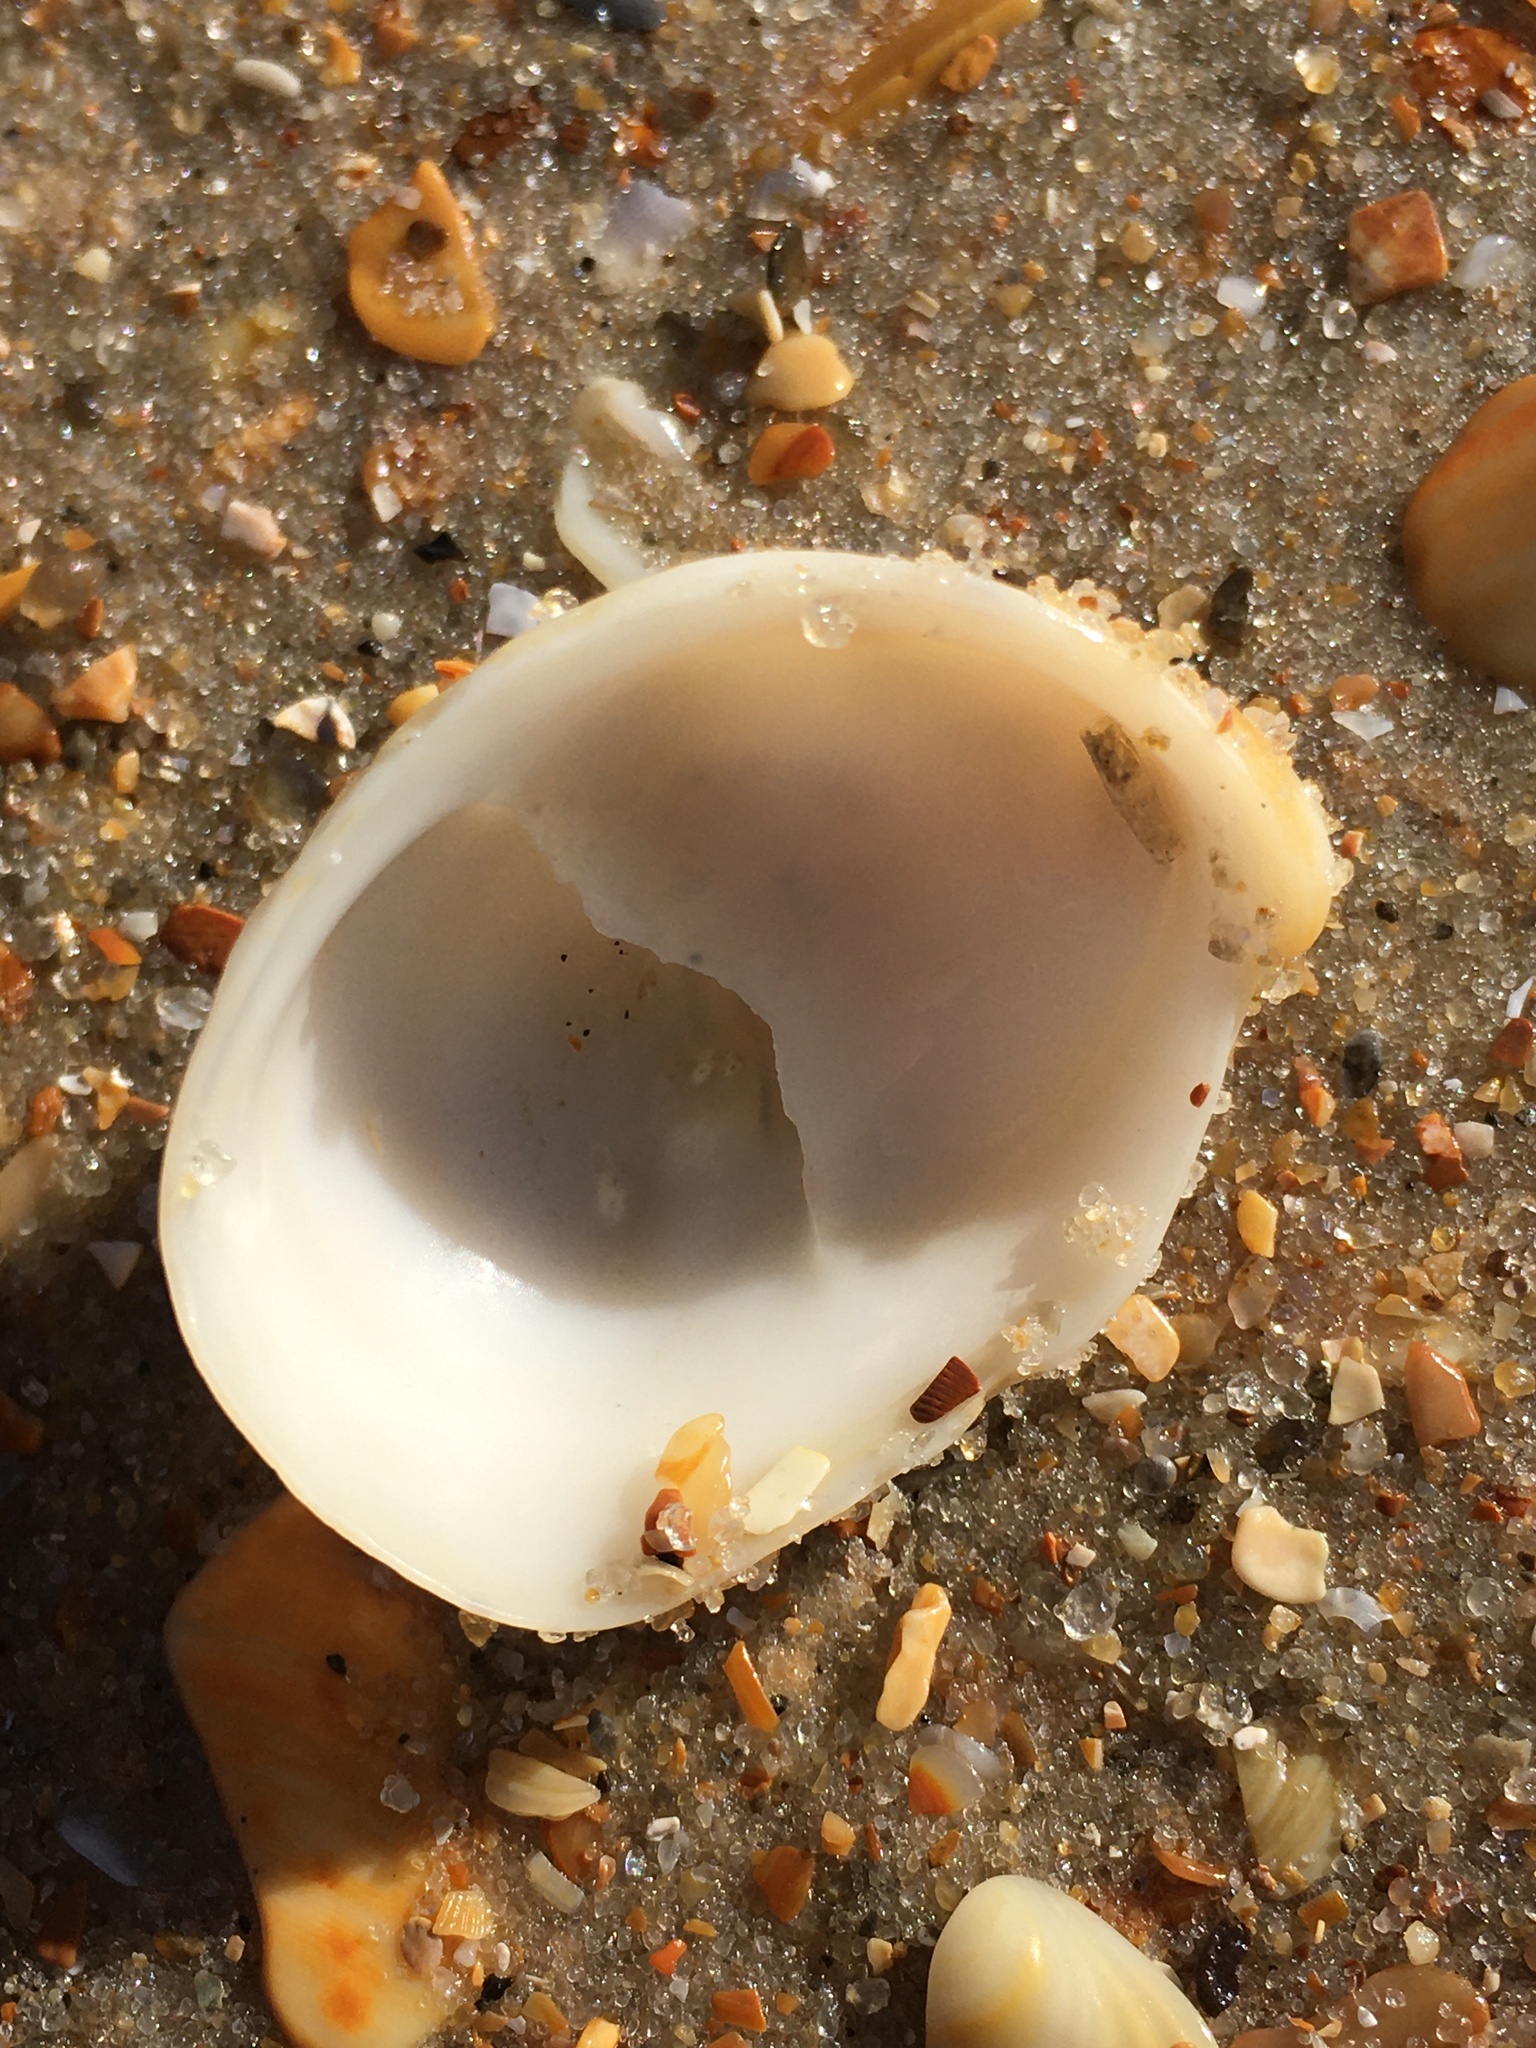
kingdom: Animalia
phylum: Mollusca
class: Gastropoda
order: Littorinimorpha
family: Calyptraeidae
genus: Crepidula
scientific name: Crepidula fornicata
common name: Slipper limpet
